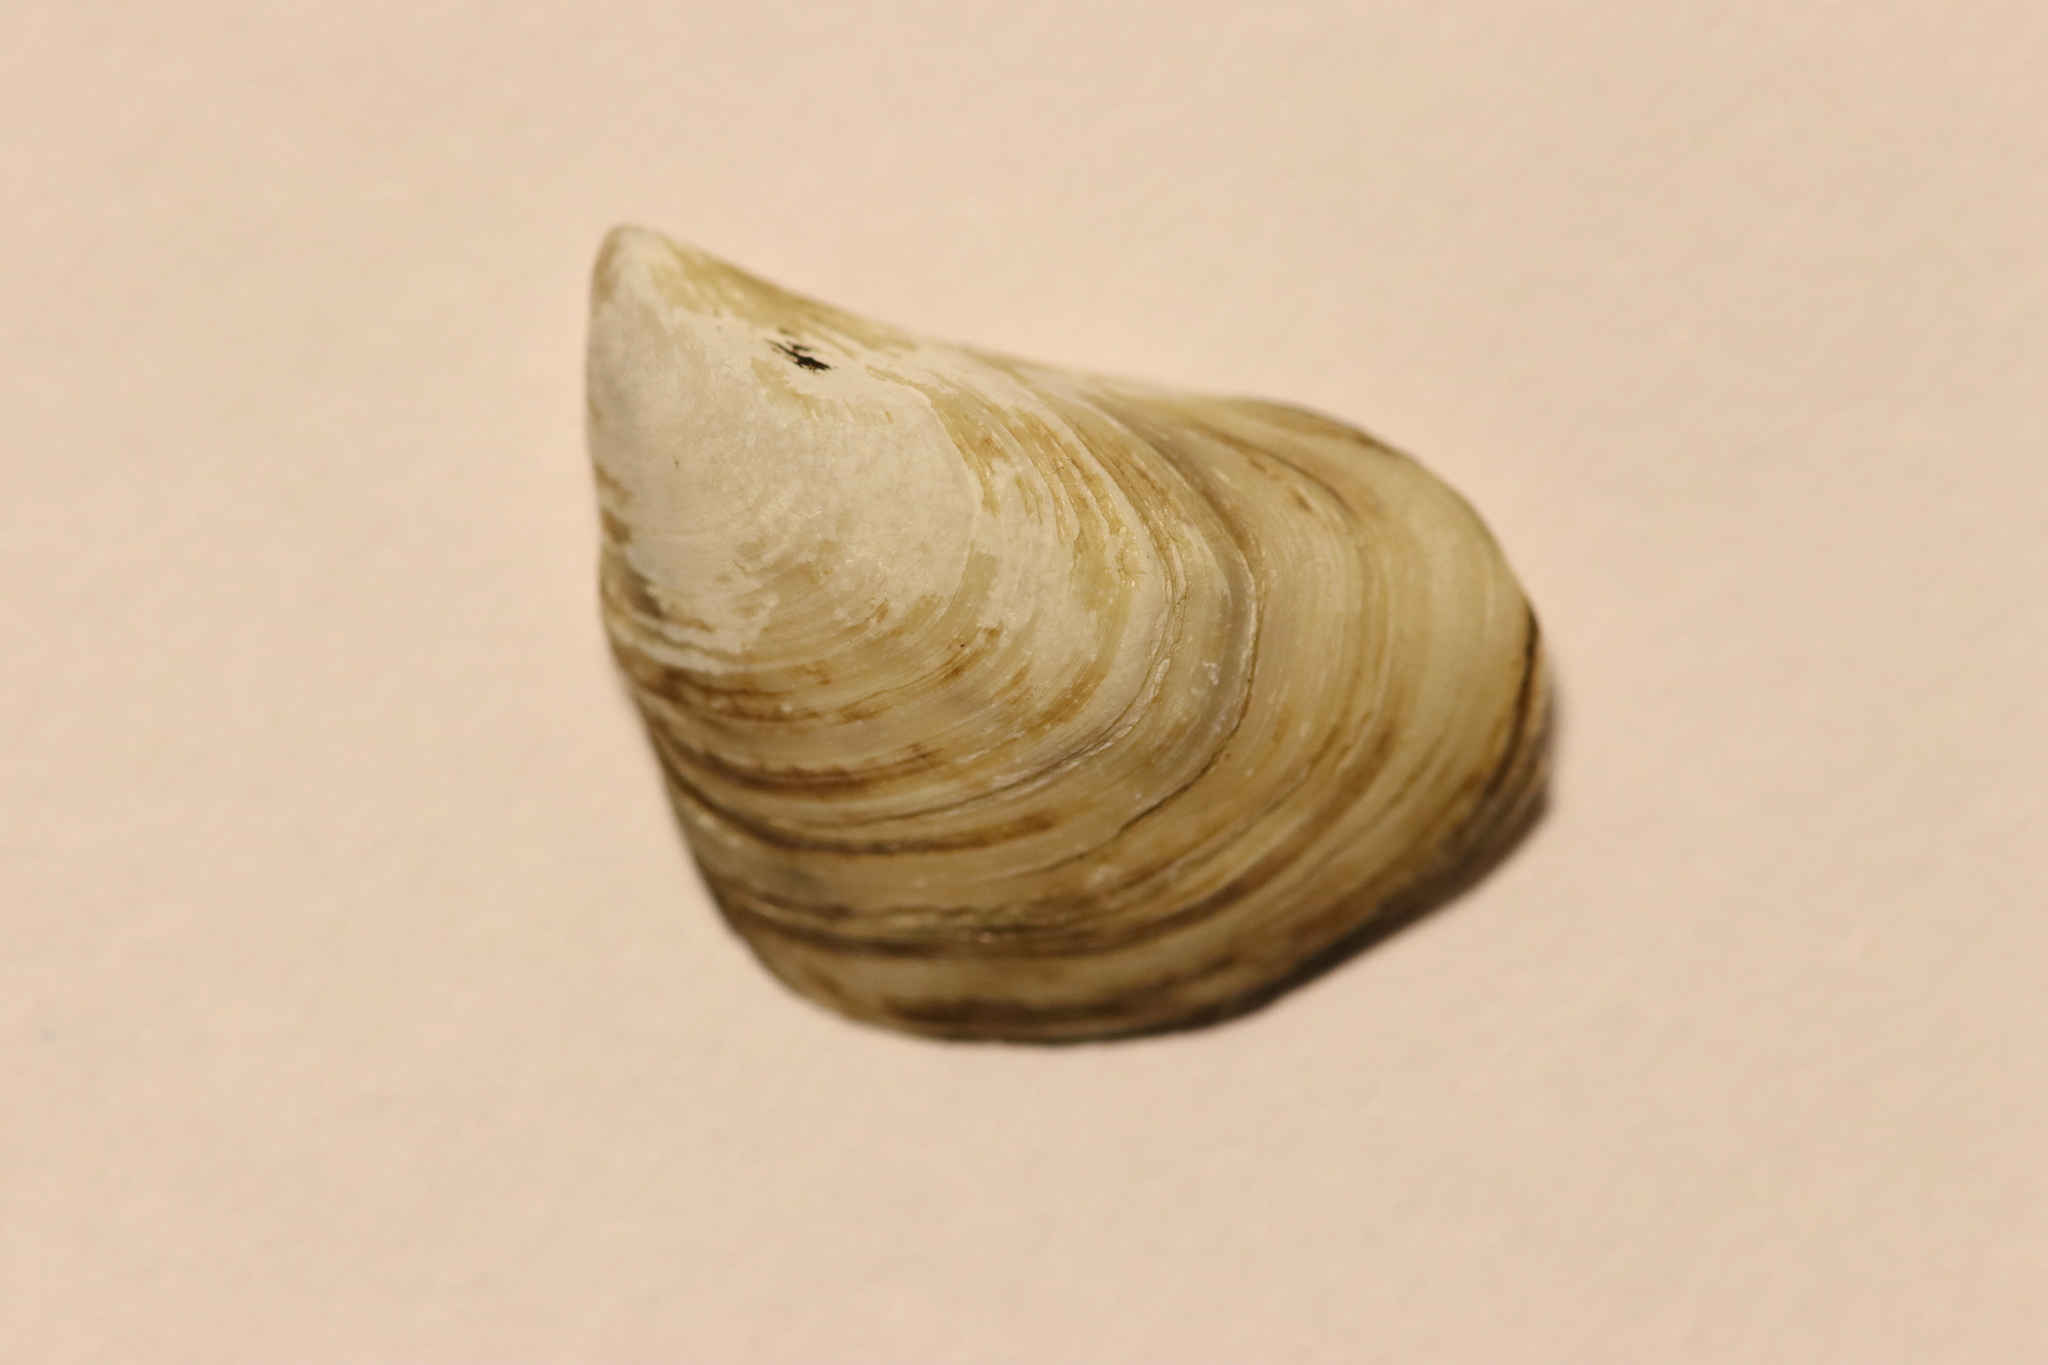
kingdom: Animalia
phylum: Mollusca
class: Bivalvia
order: Myida
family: Dreissenidae
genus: Dreissena
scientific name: Dreissena bugensis
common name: Quagga mussel
